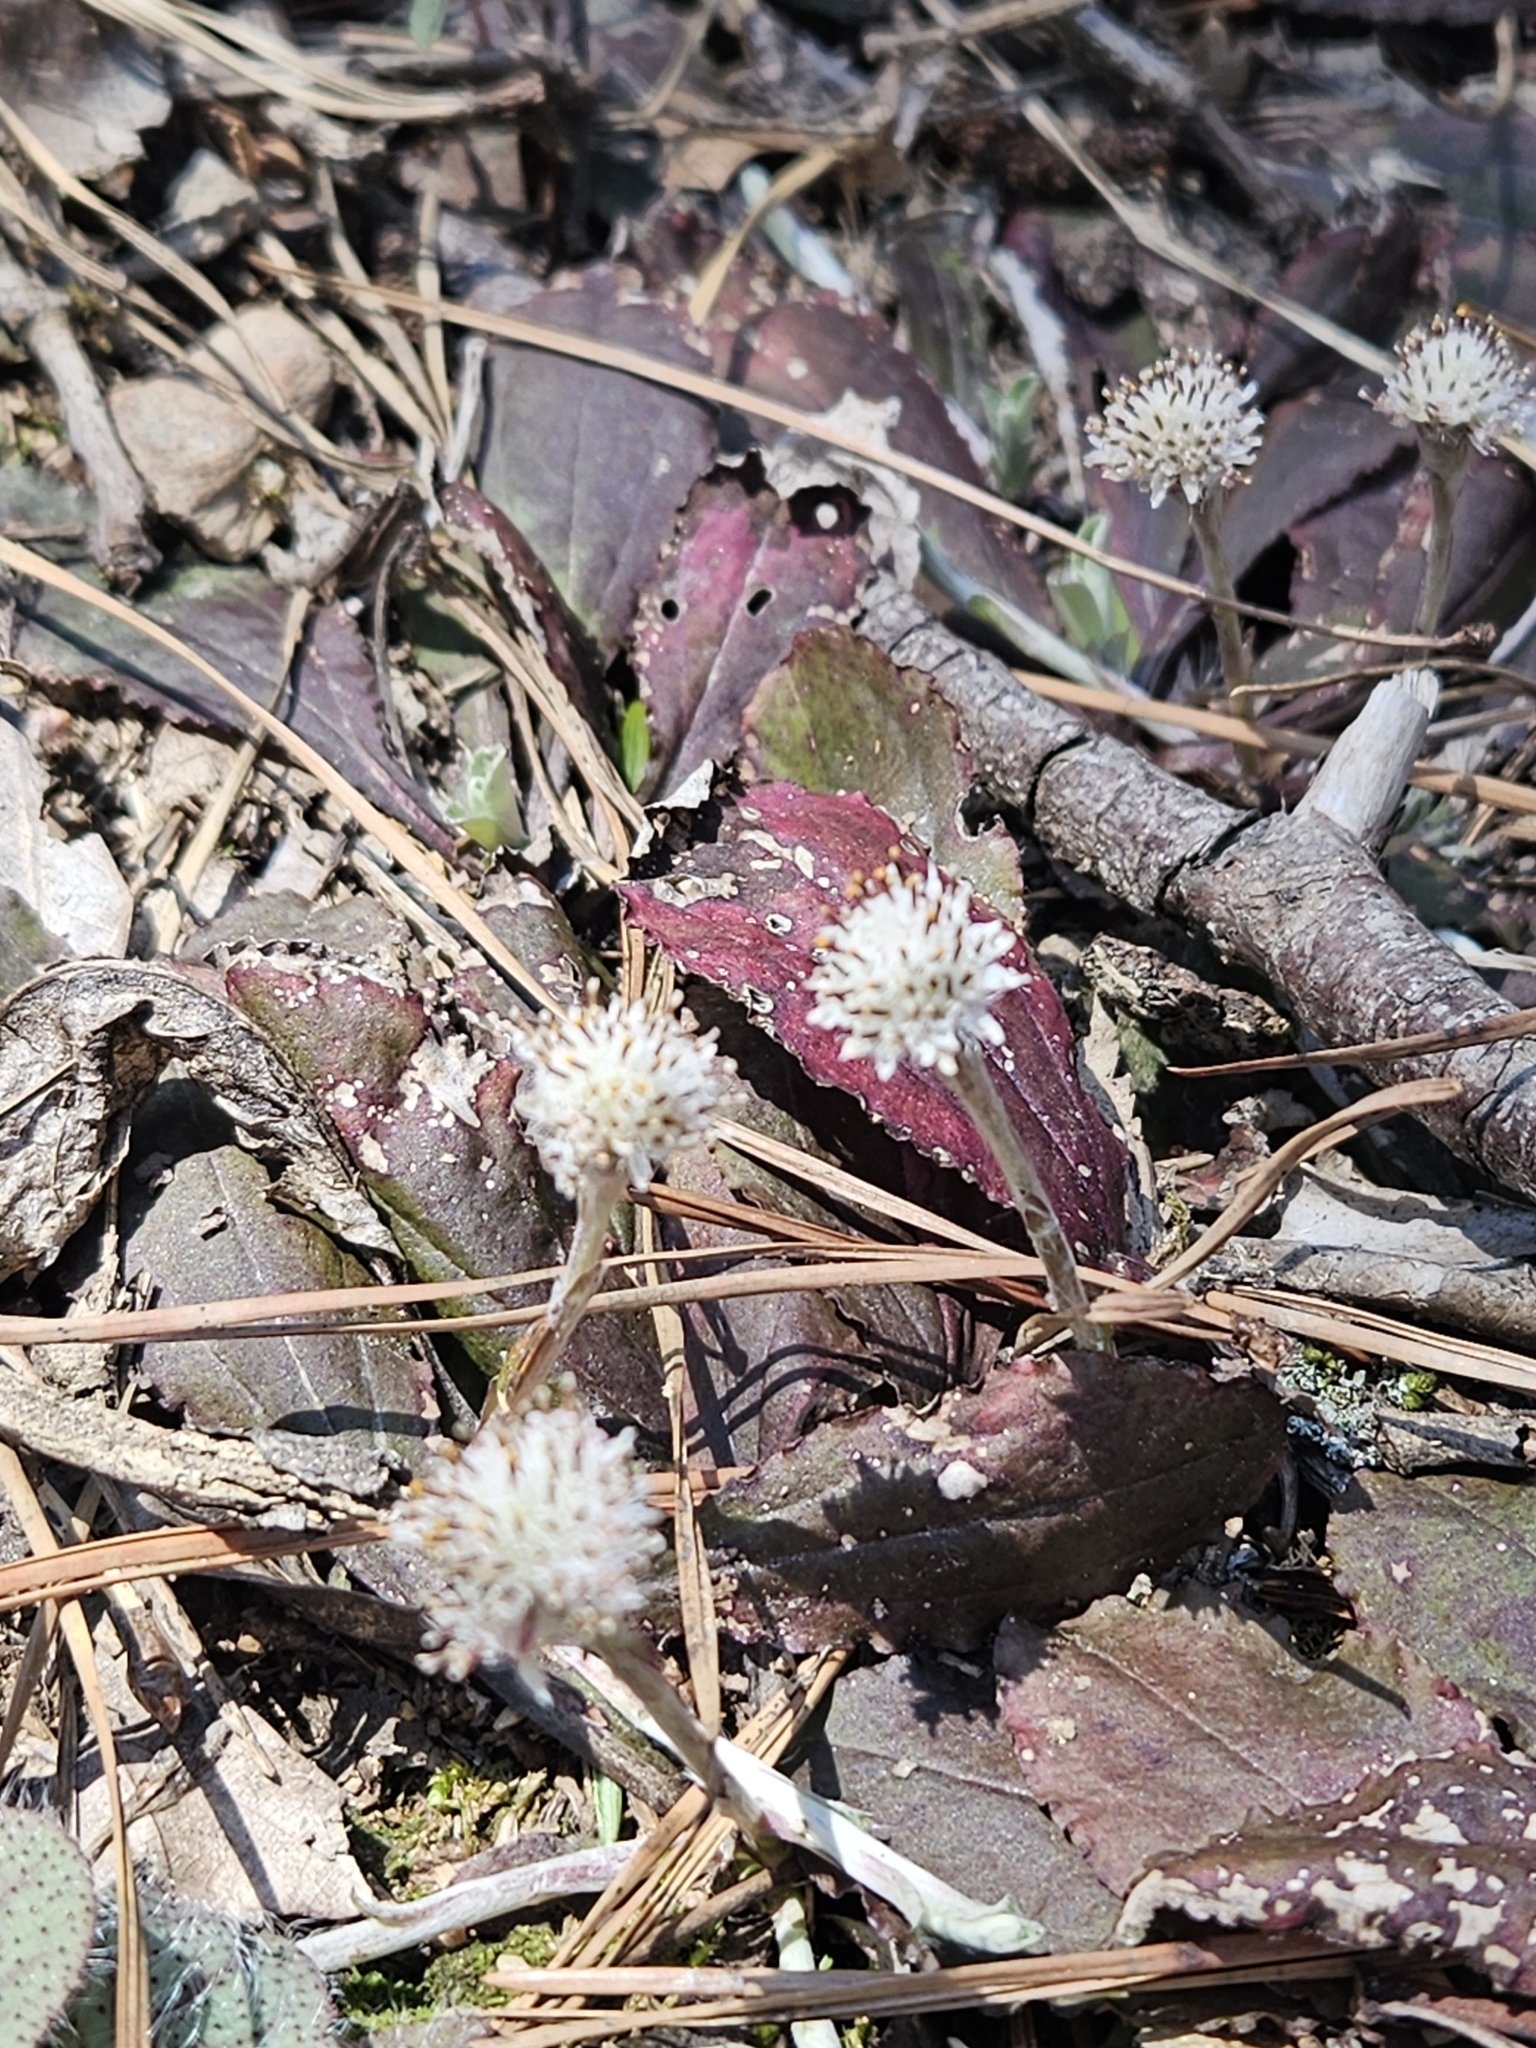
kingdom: Plantae
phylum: Tracheophyta
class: Magnoliopsida
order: Asterales
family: Asteraceae
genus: Antennaria
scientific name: Antennaria solitaria
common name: Single-head pussytoes
